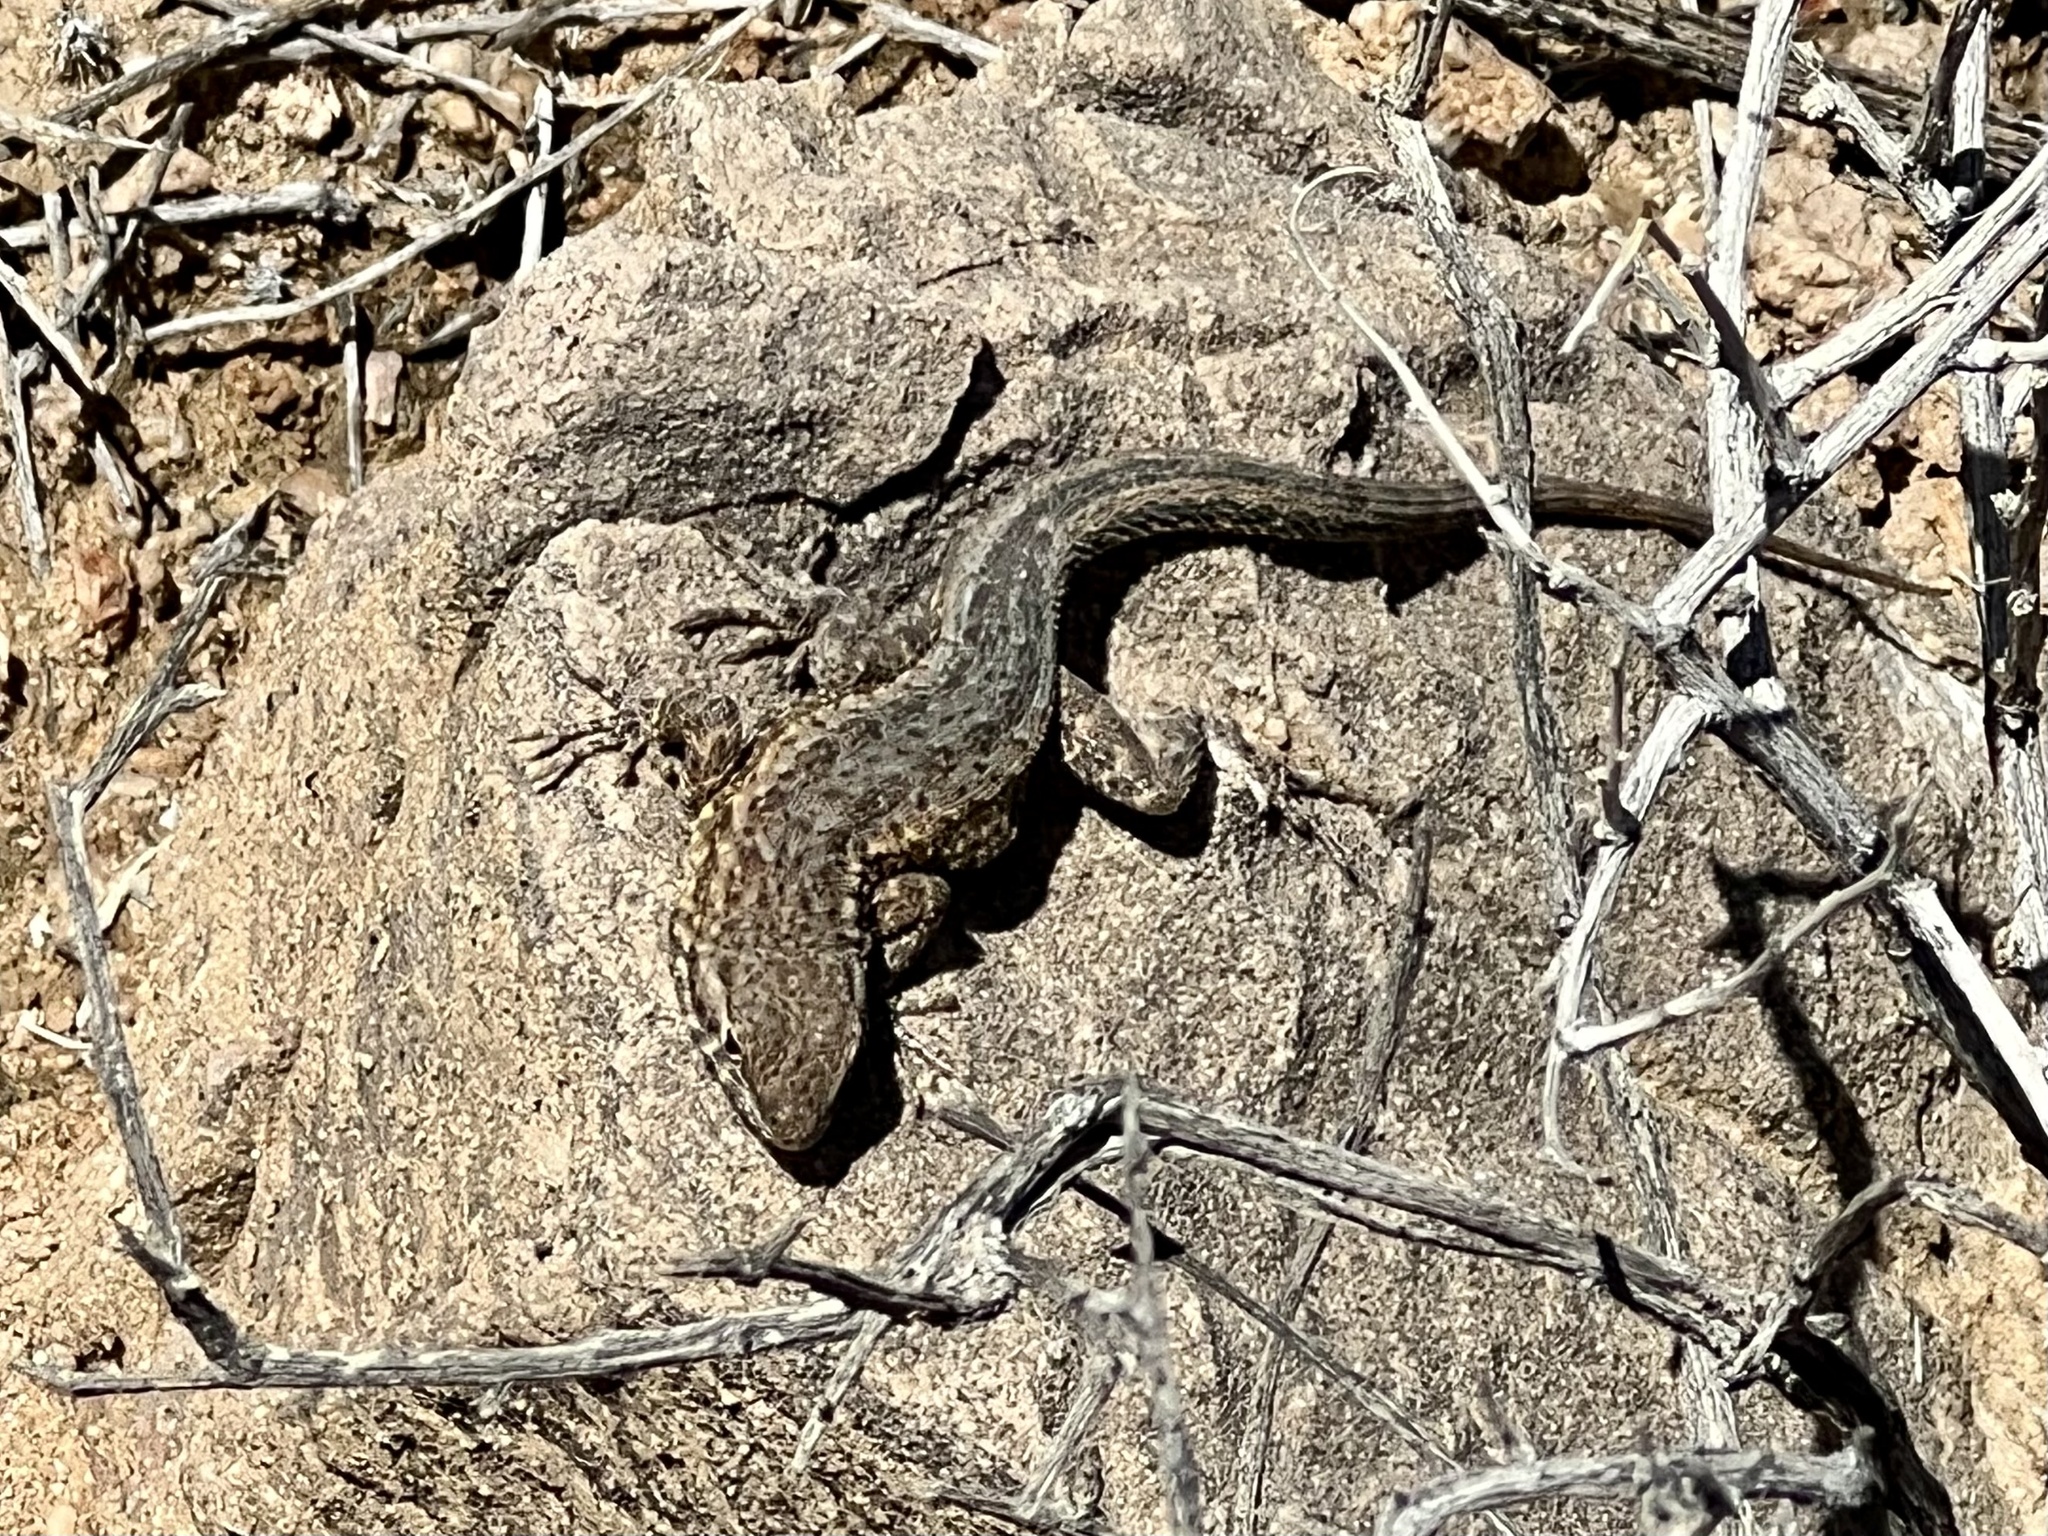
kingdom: Animalia
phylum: Chordata
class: Squamata
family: Phrynosomatidae
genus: Uta
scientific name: Uta stansburiana
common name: Side-blotched lizard
